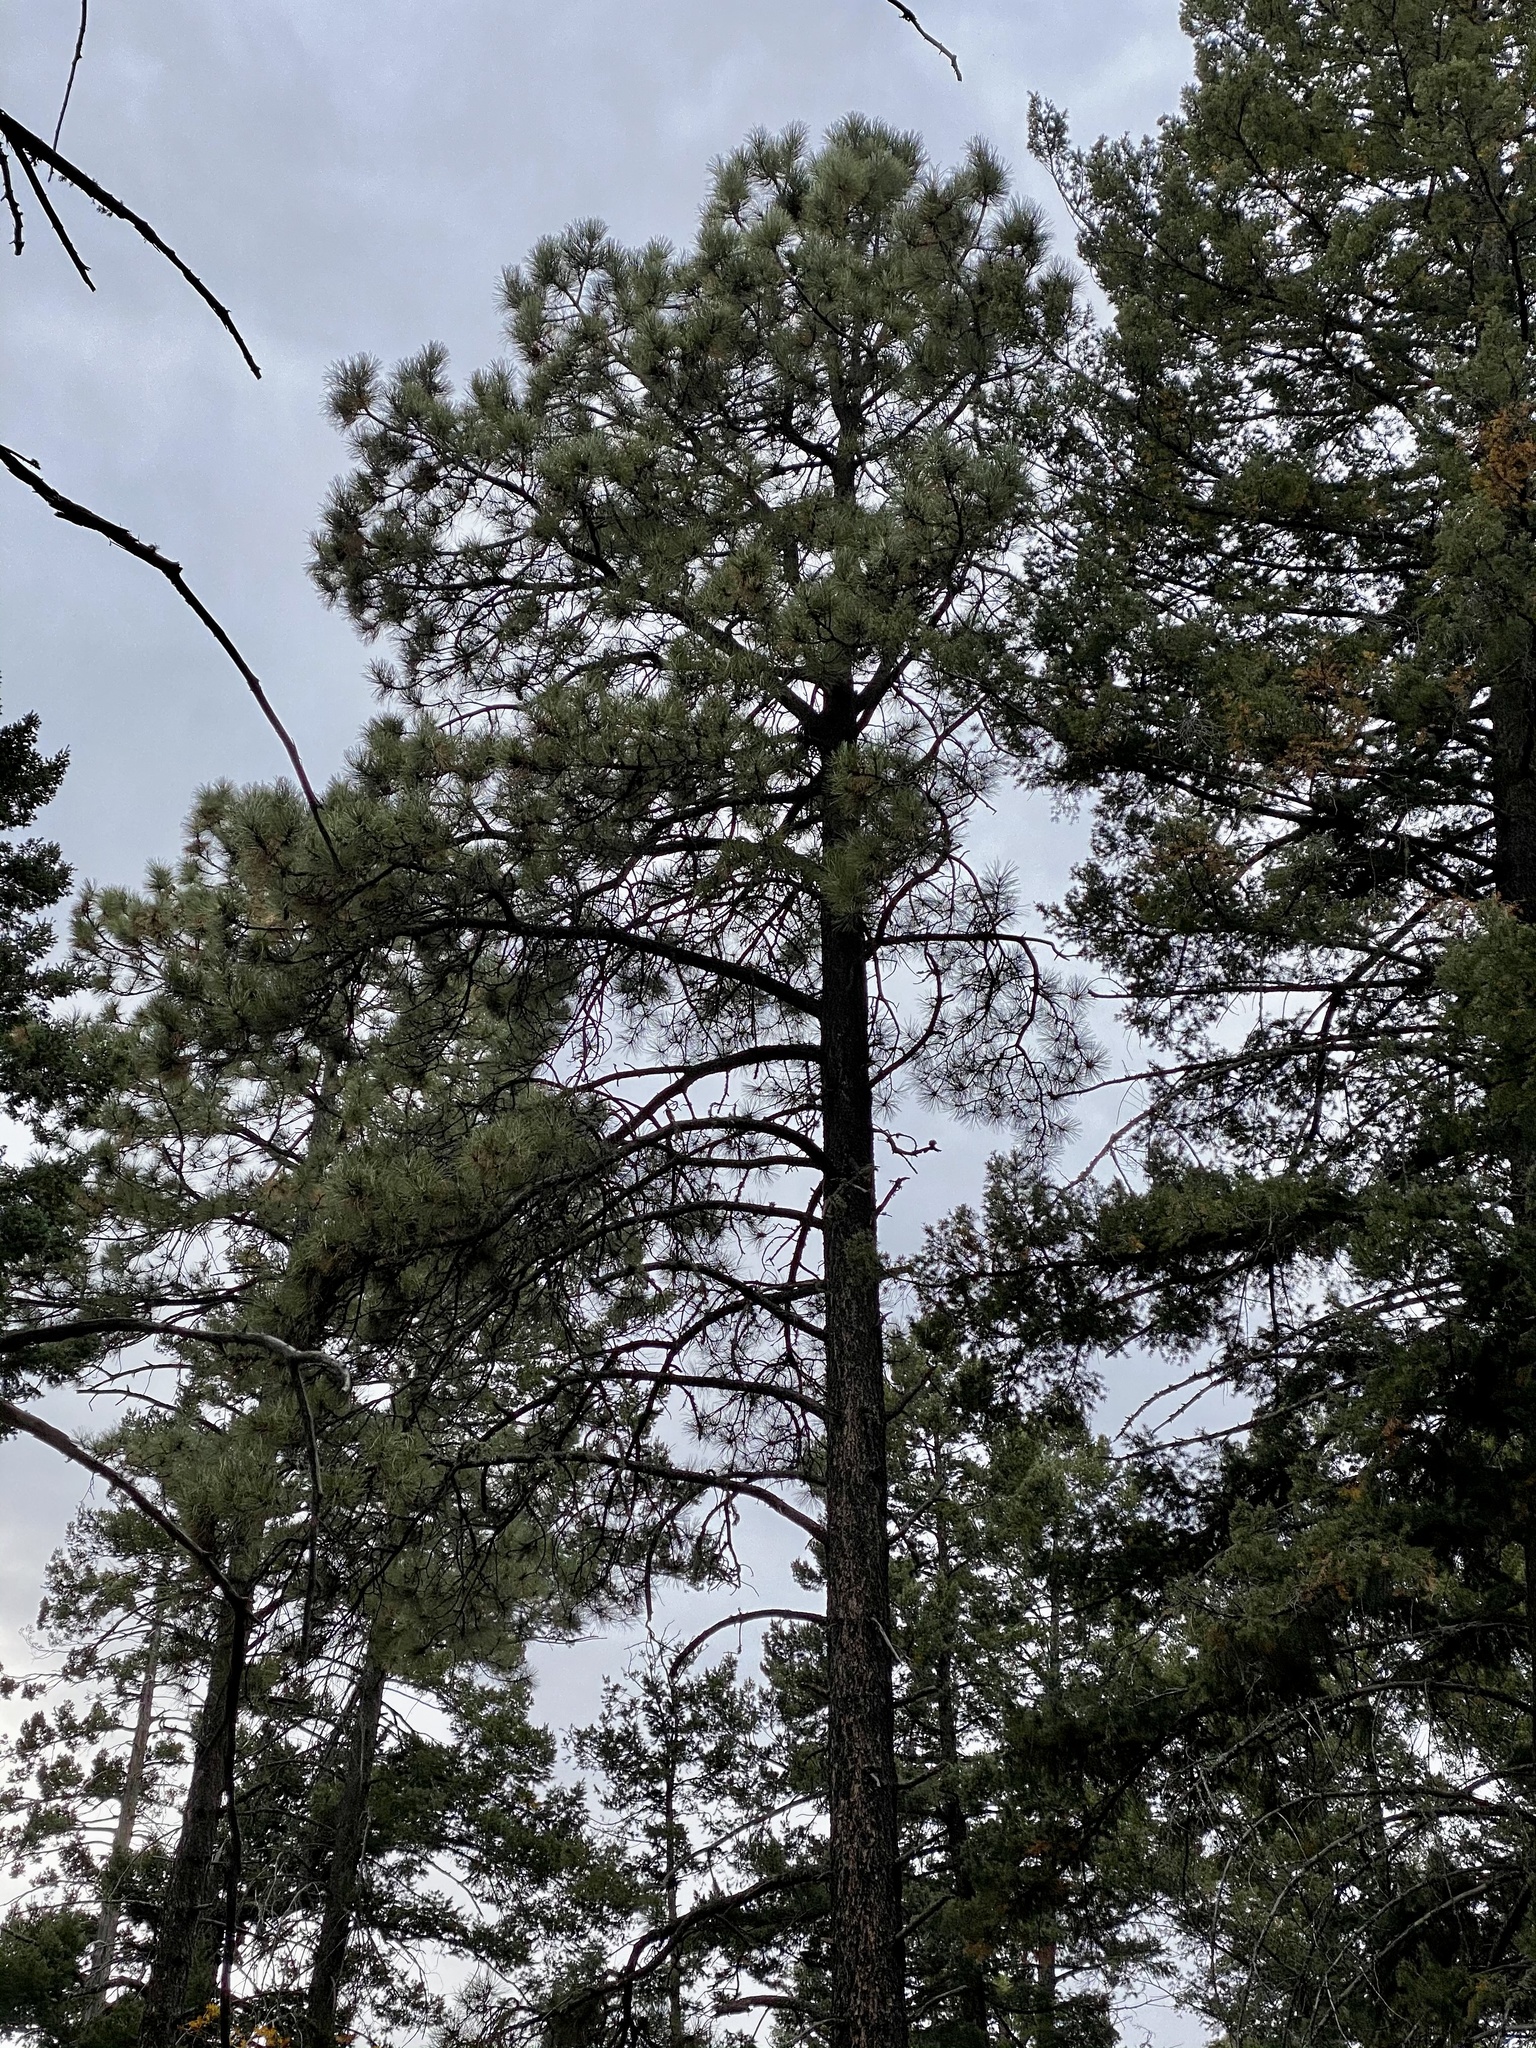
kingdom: Plantae
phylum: Tracheophyta
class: Pinopsida
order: Pinales
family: Pinaceae
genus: Pinus
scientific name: Pinus ponderosa
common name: Western yellow-pine
